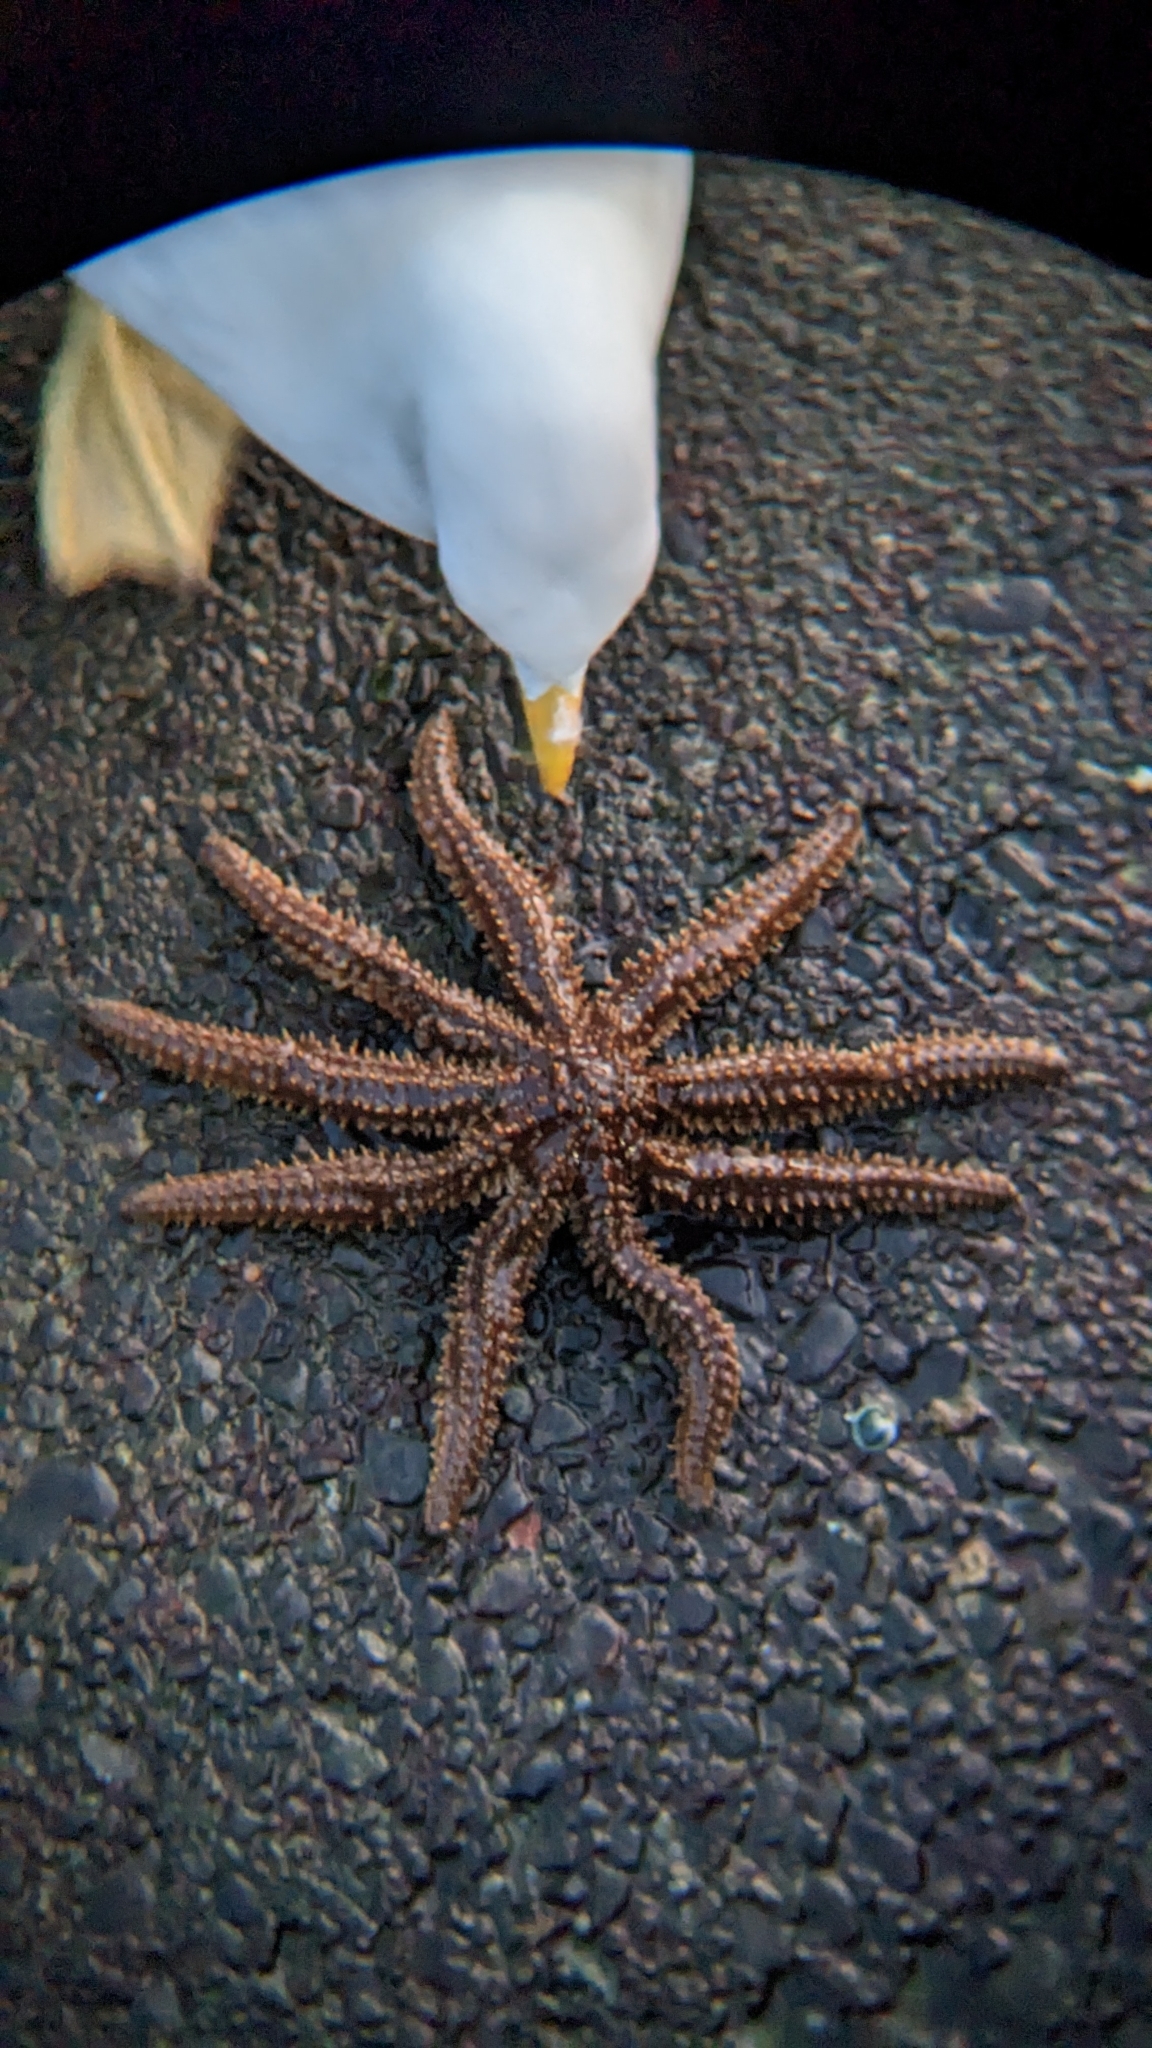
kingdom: Animalia
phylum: Echinodermata
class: Asteroidea
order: Forcipulatida
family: Asteriidae
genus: Coscinasterias
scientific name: Coscinasterias muricata
